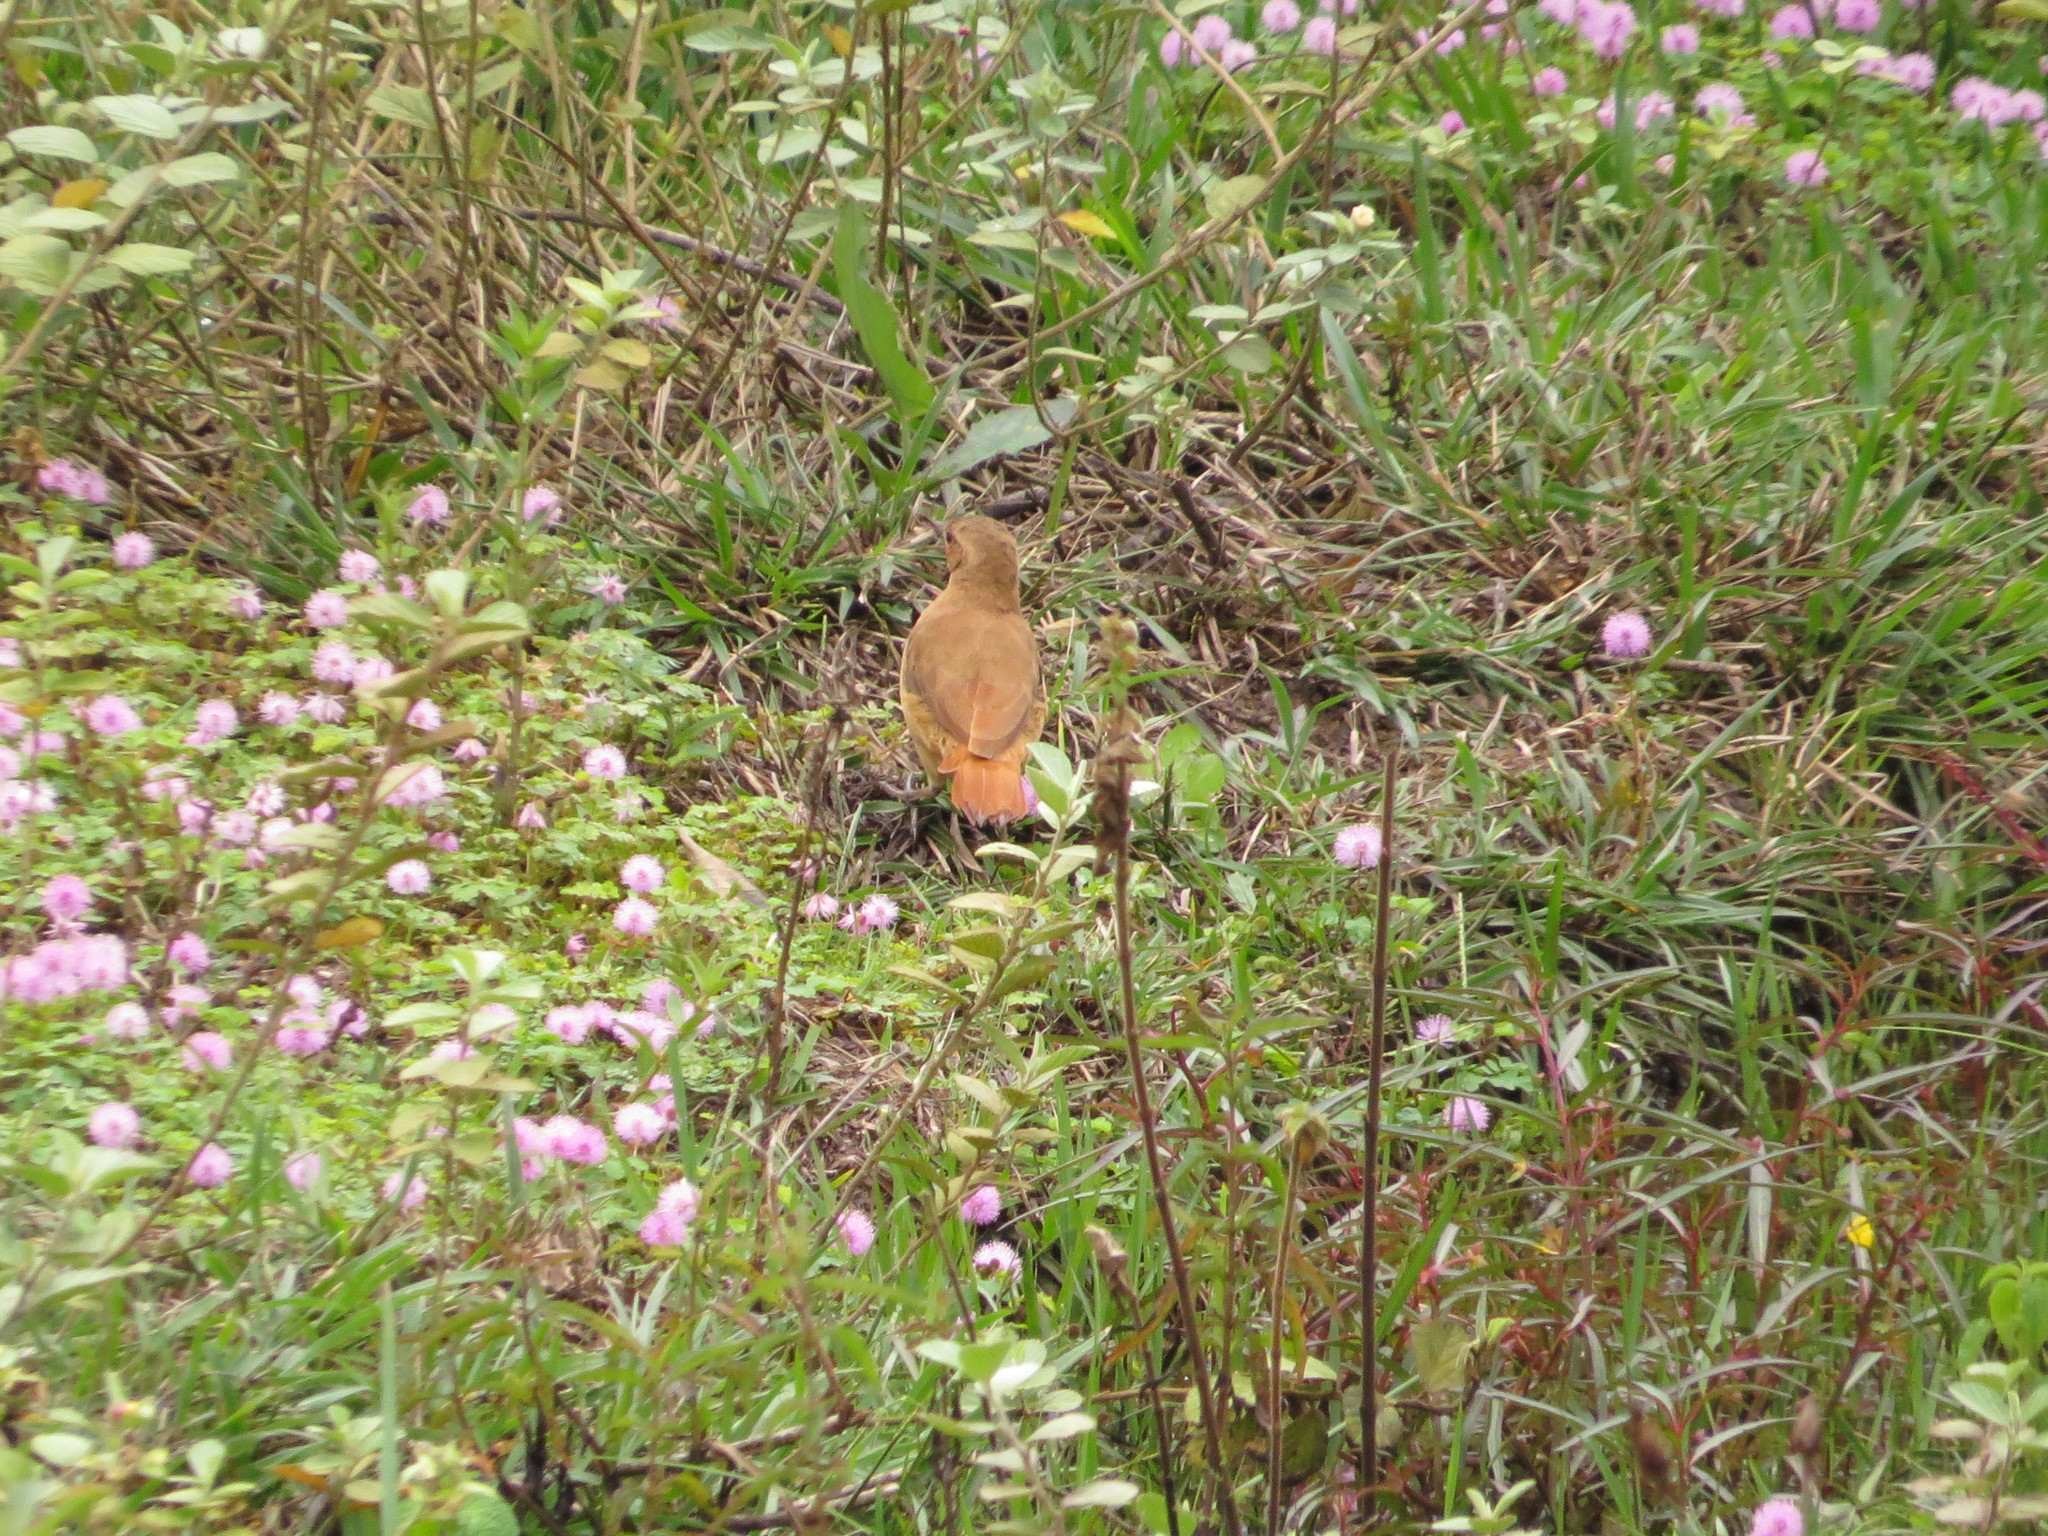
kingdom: Animalia
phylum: Chordata
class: Aves
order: Passeriformes
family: Furnariidae
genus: Furnarius
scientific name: Furnarius rufus
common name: Rufous hornero
